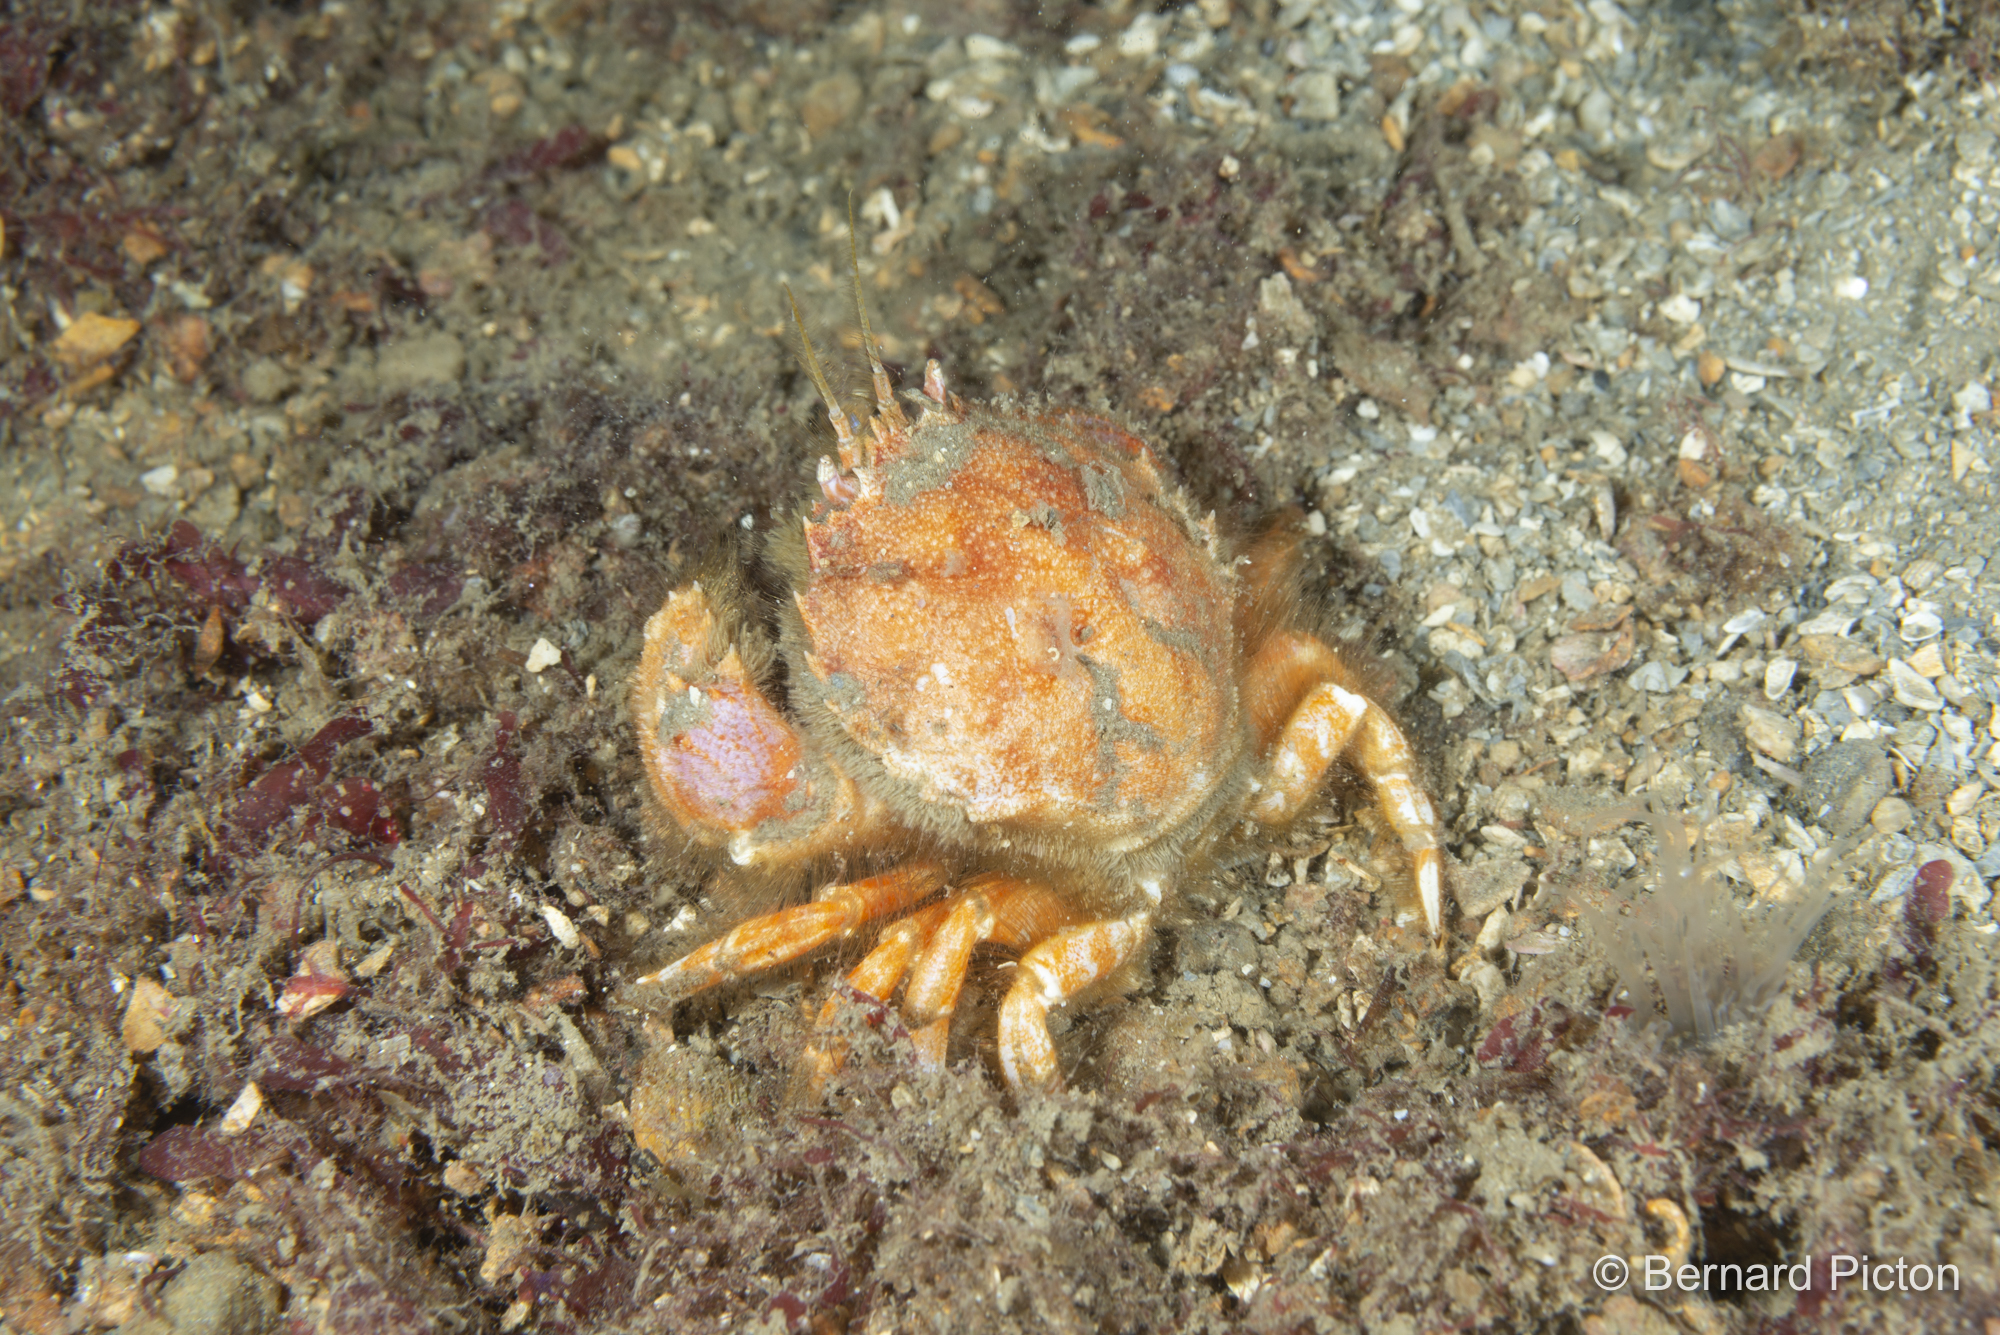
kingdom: Animalia
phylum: Arthropoda
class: Malacostraca
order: Decapoda
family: Atelecyclidae
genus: Atelecyclus
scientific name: Atelecyclus rotundatus
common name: Circular crab
